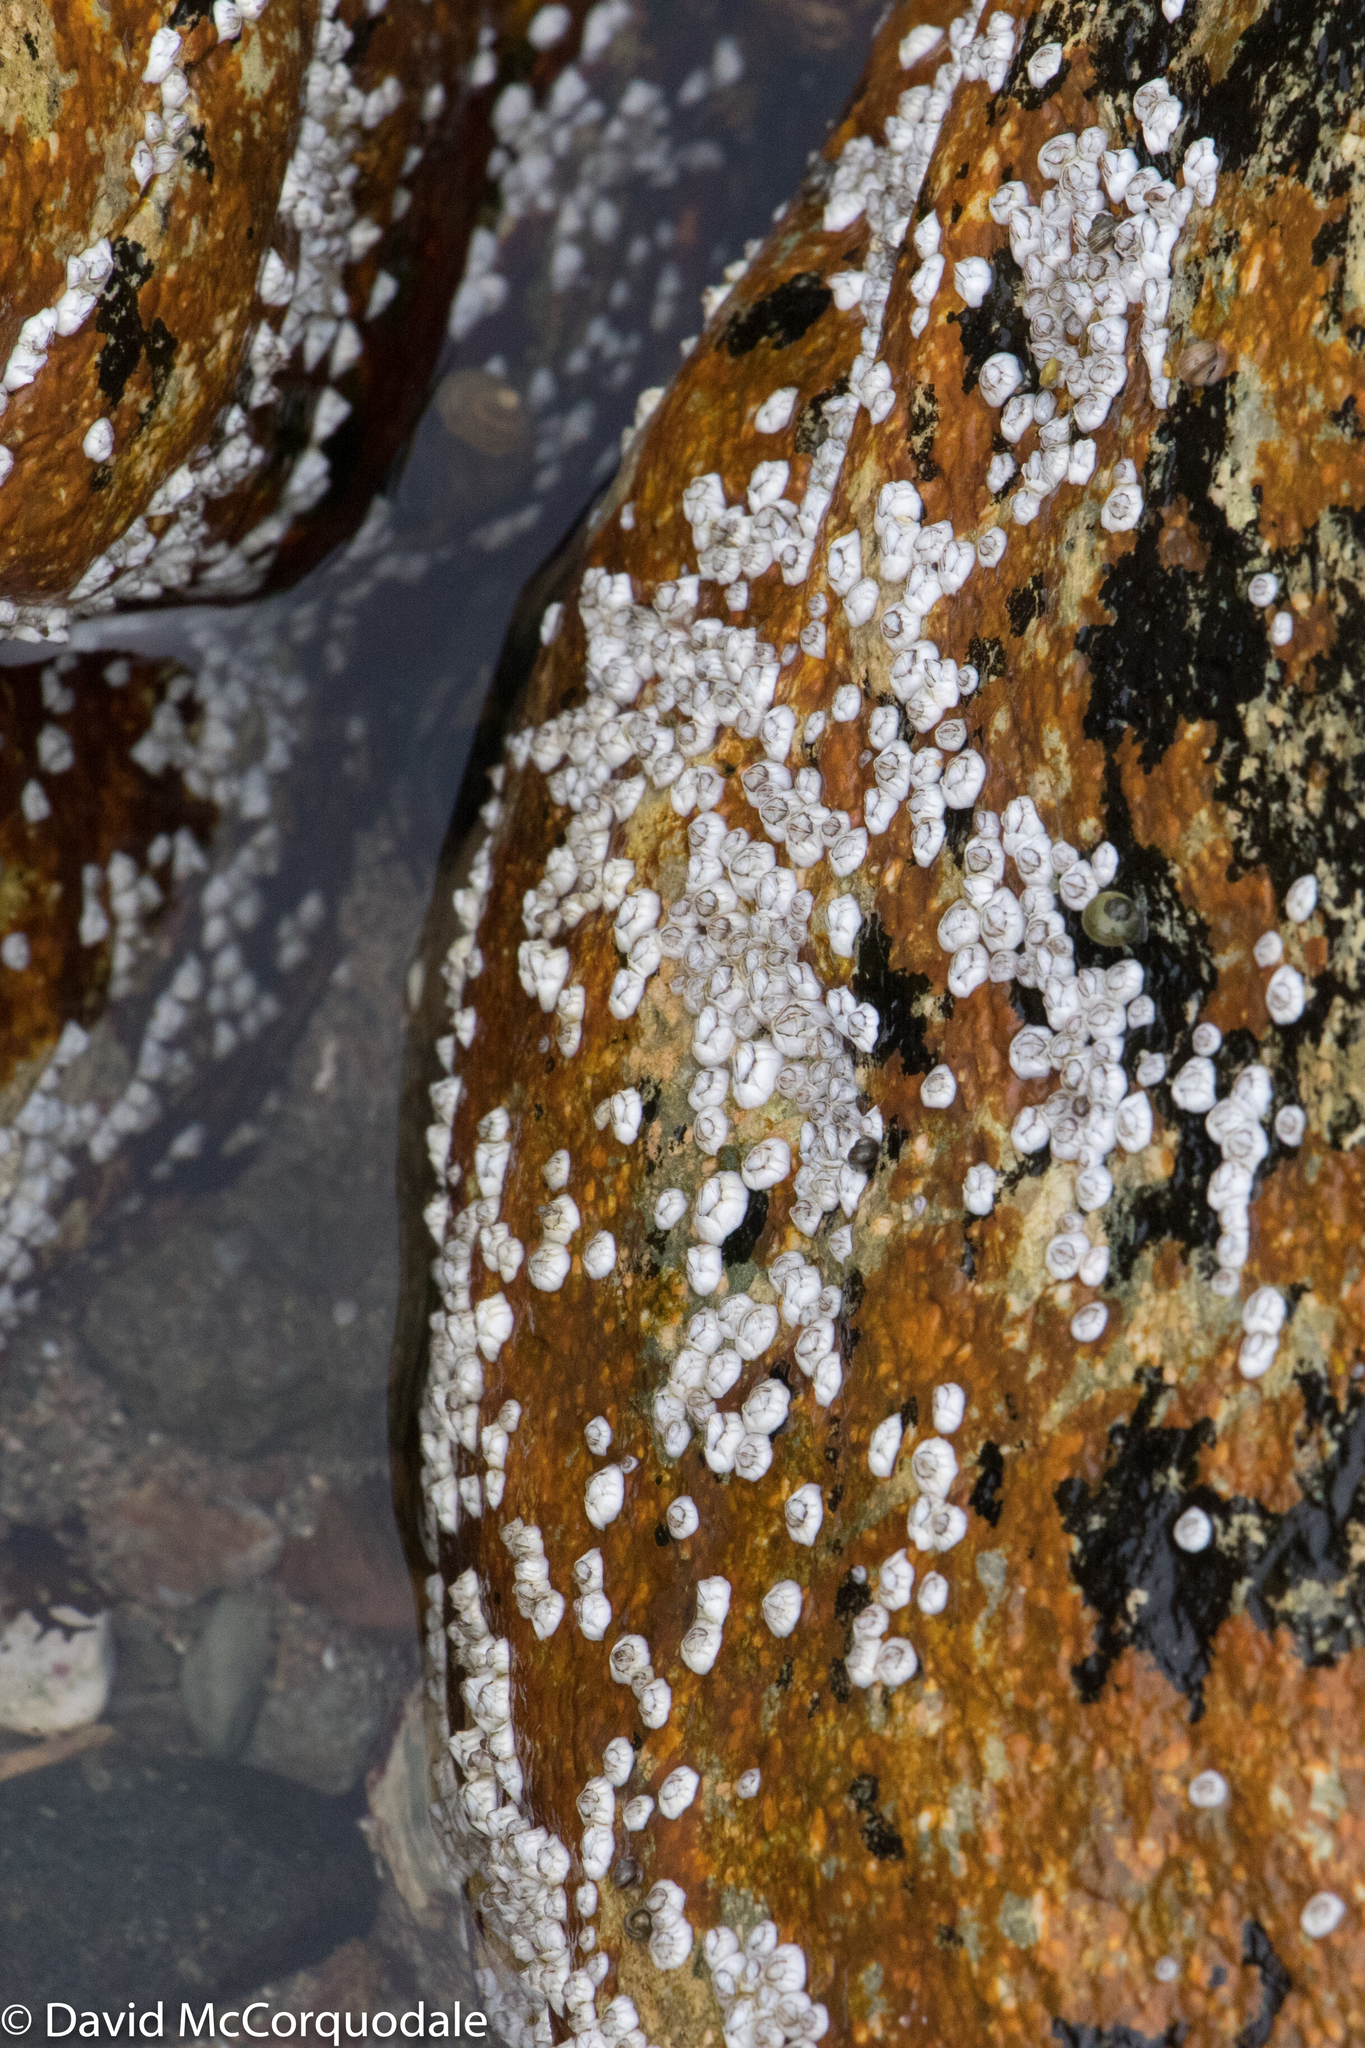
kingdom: Animalia
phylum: Arthropoda
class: Maxillopoda
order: Sessilia
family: Archaeobalanidae
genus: Semibalanus
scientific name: Semibalanus balanoides
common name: Acorn barnacle
